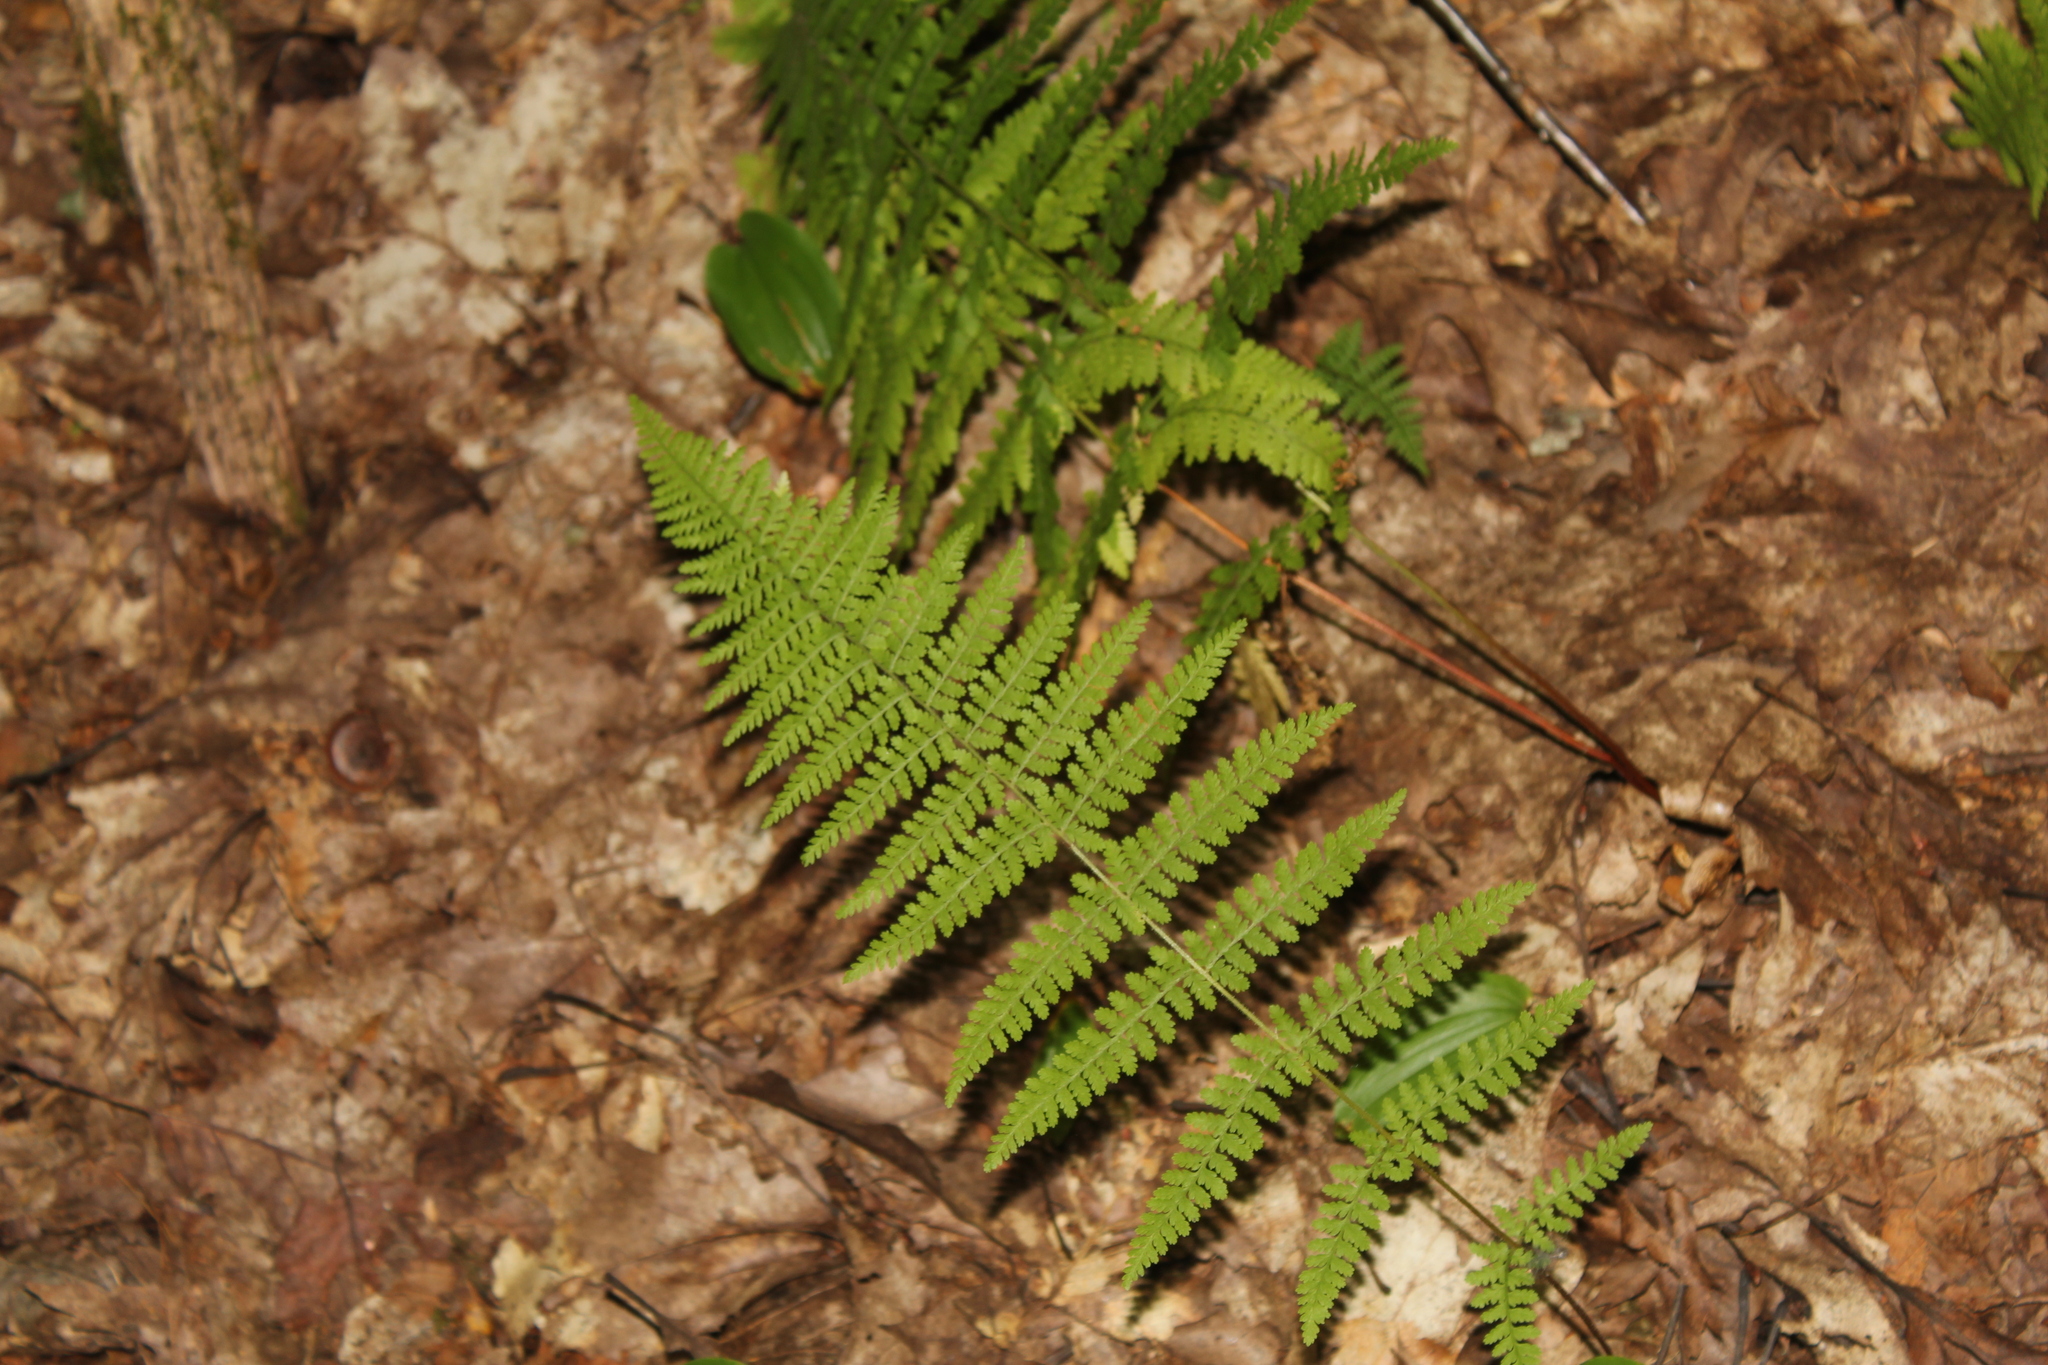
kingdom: Plantae
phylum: Tracheophyta
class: Polypodiopsida
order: Polypodiales
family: Dennstaedtiaceae
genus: Sitobolium
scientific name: Sitobolium punctilobum
